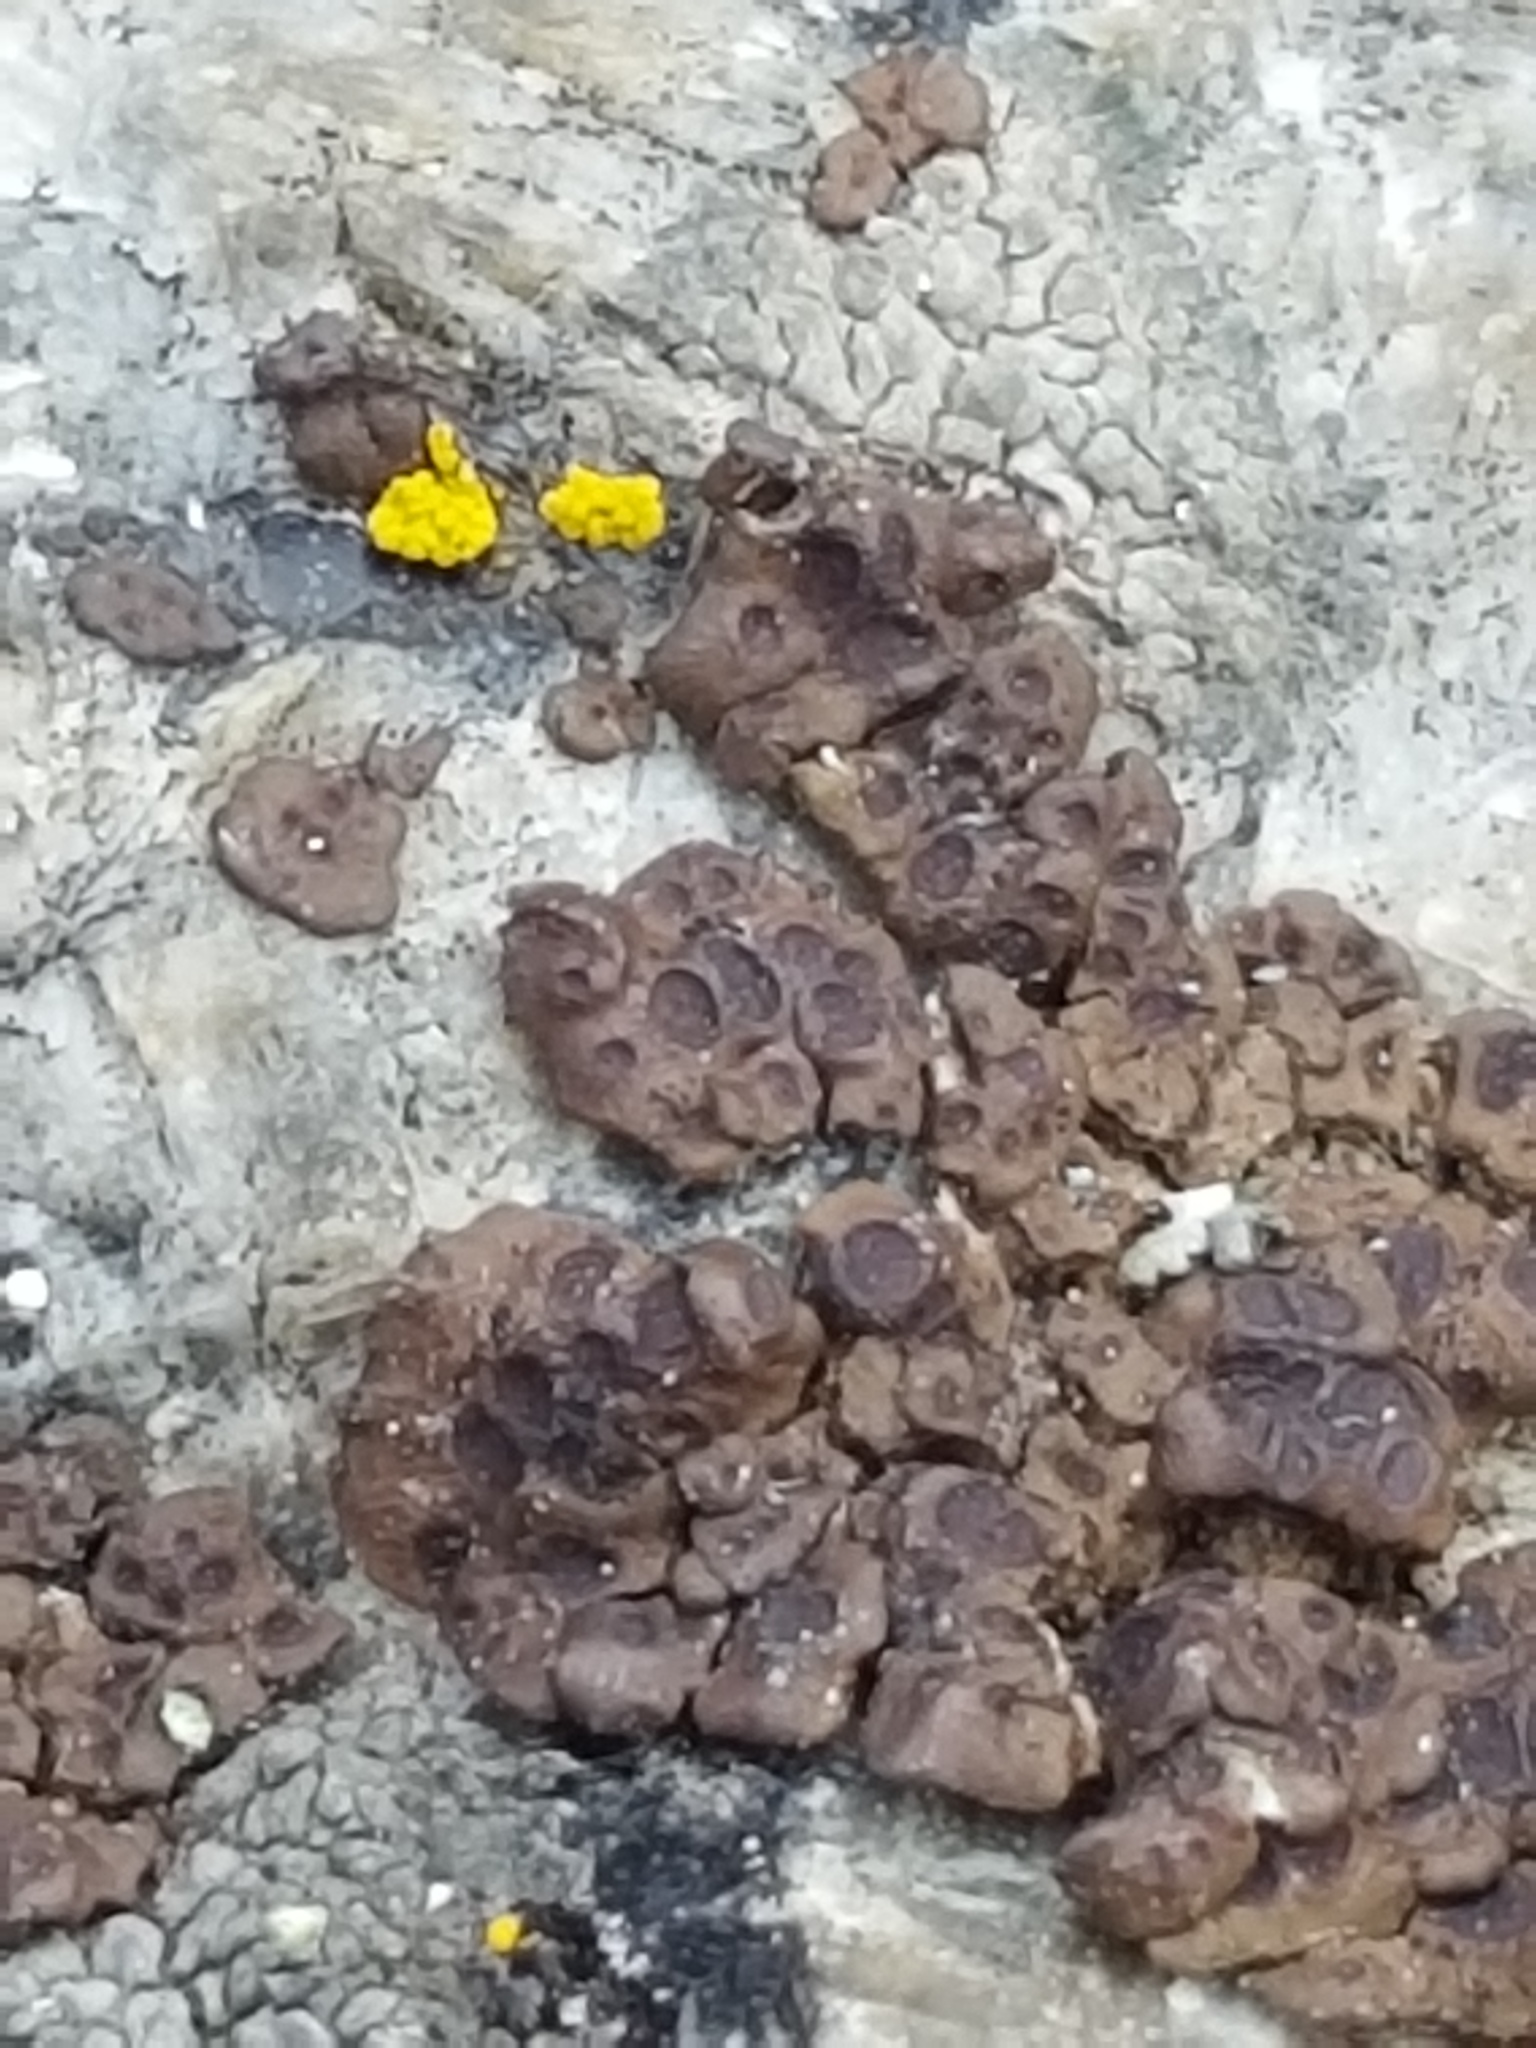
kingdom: Fungi
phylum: Ascomycota
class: Lecanoromycetes
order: Acarosporales
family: Acarosporaceae
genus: Acarospora
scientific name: Acarospora fuscata
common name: Brown cobblestone lichen
